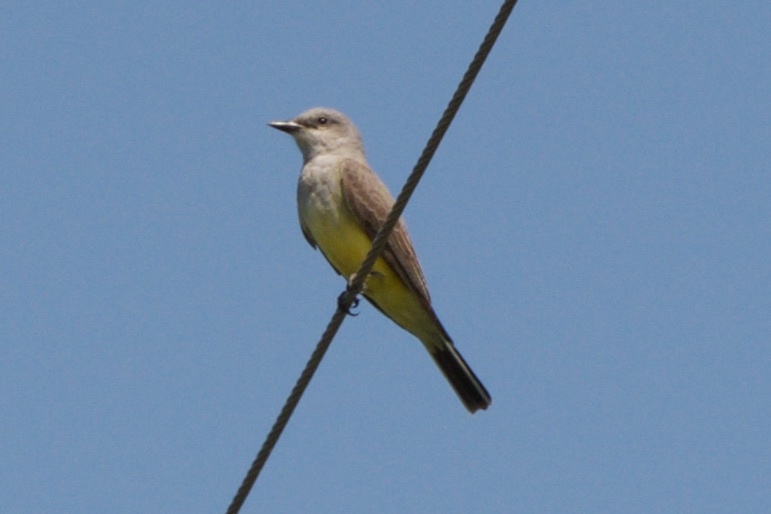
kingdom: Animalia
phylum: Chordata
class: Aves
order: Passeriformes
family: Tyrannidae
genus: Tyrannus
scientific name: Tyrannus verticalis
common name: Western kingbird
